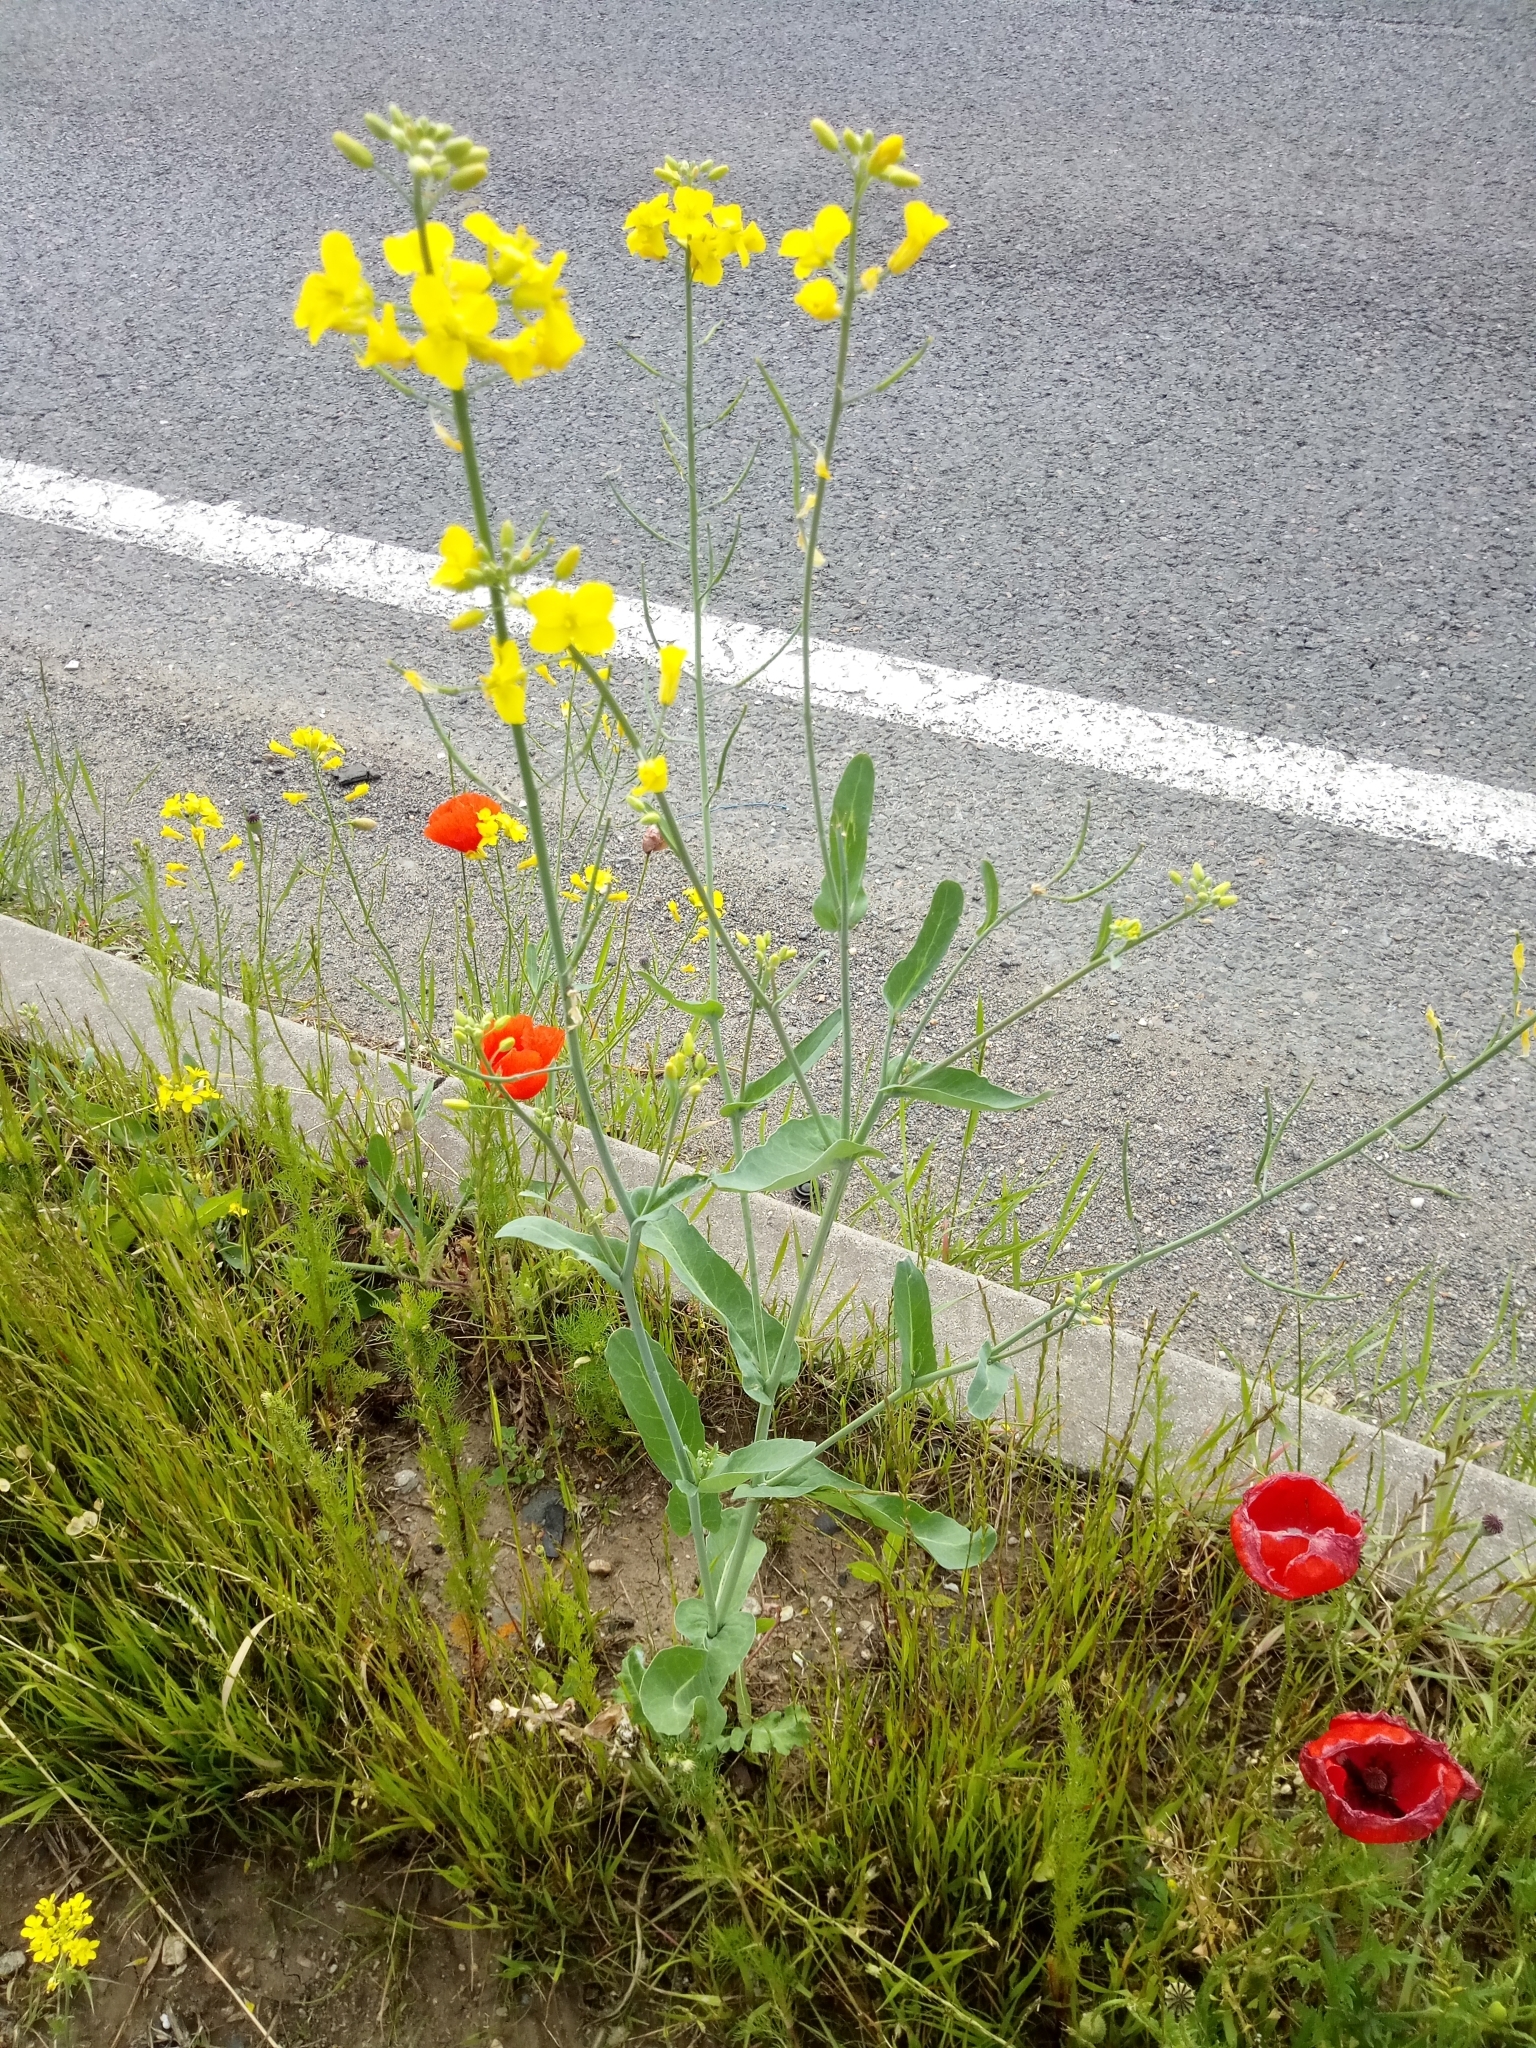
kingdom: Plantae
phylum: Tracheophyta
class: Magnoliopsida
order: Brassicales
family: Brassicaceae
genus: Brassica
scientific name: Brassica napus
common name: Rape
